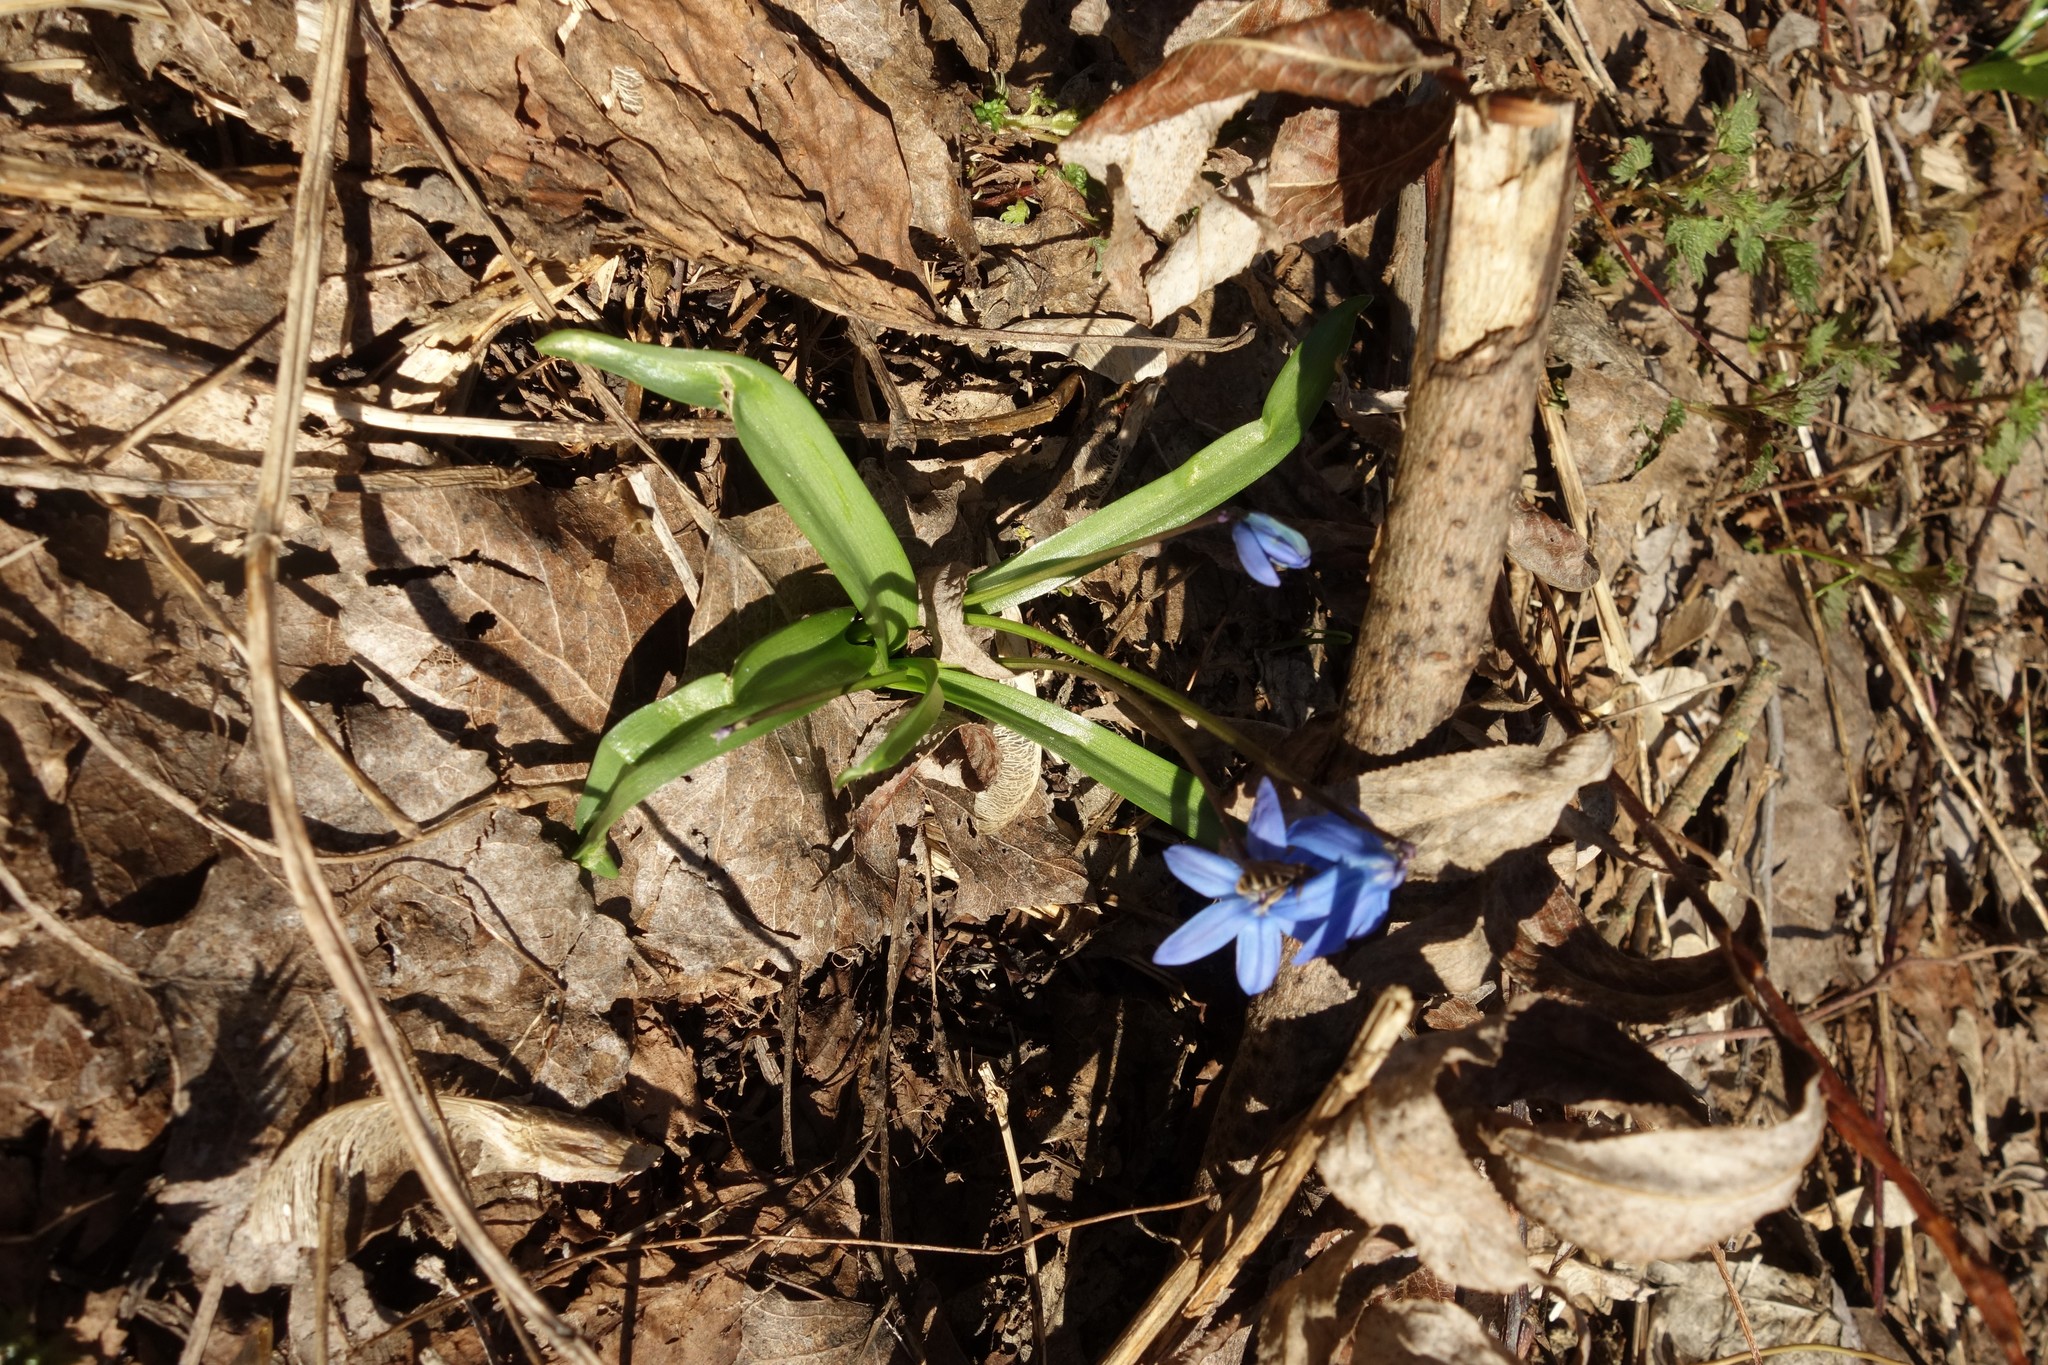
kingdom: Plantae
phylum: Tracheophyta
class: Liliopsida
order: Asparagales
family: Asparagaceae
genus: Scilla
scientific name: Scilla siberica
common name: Siberian squill
